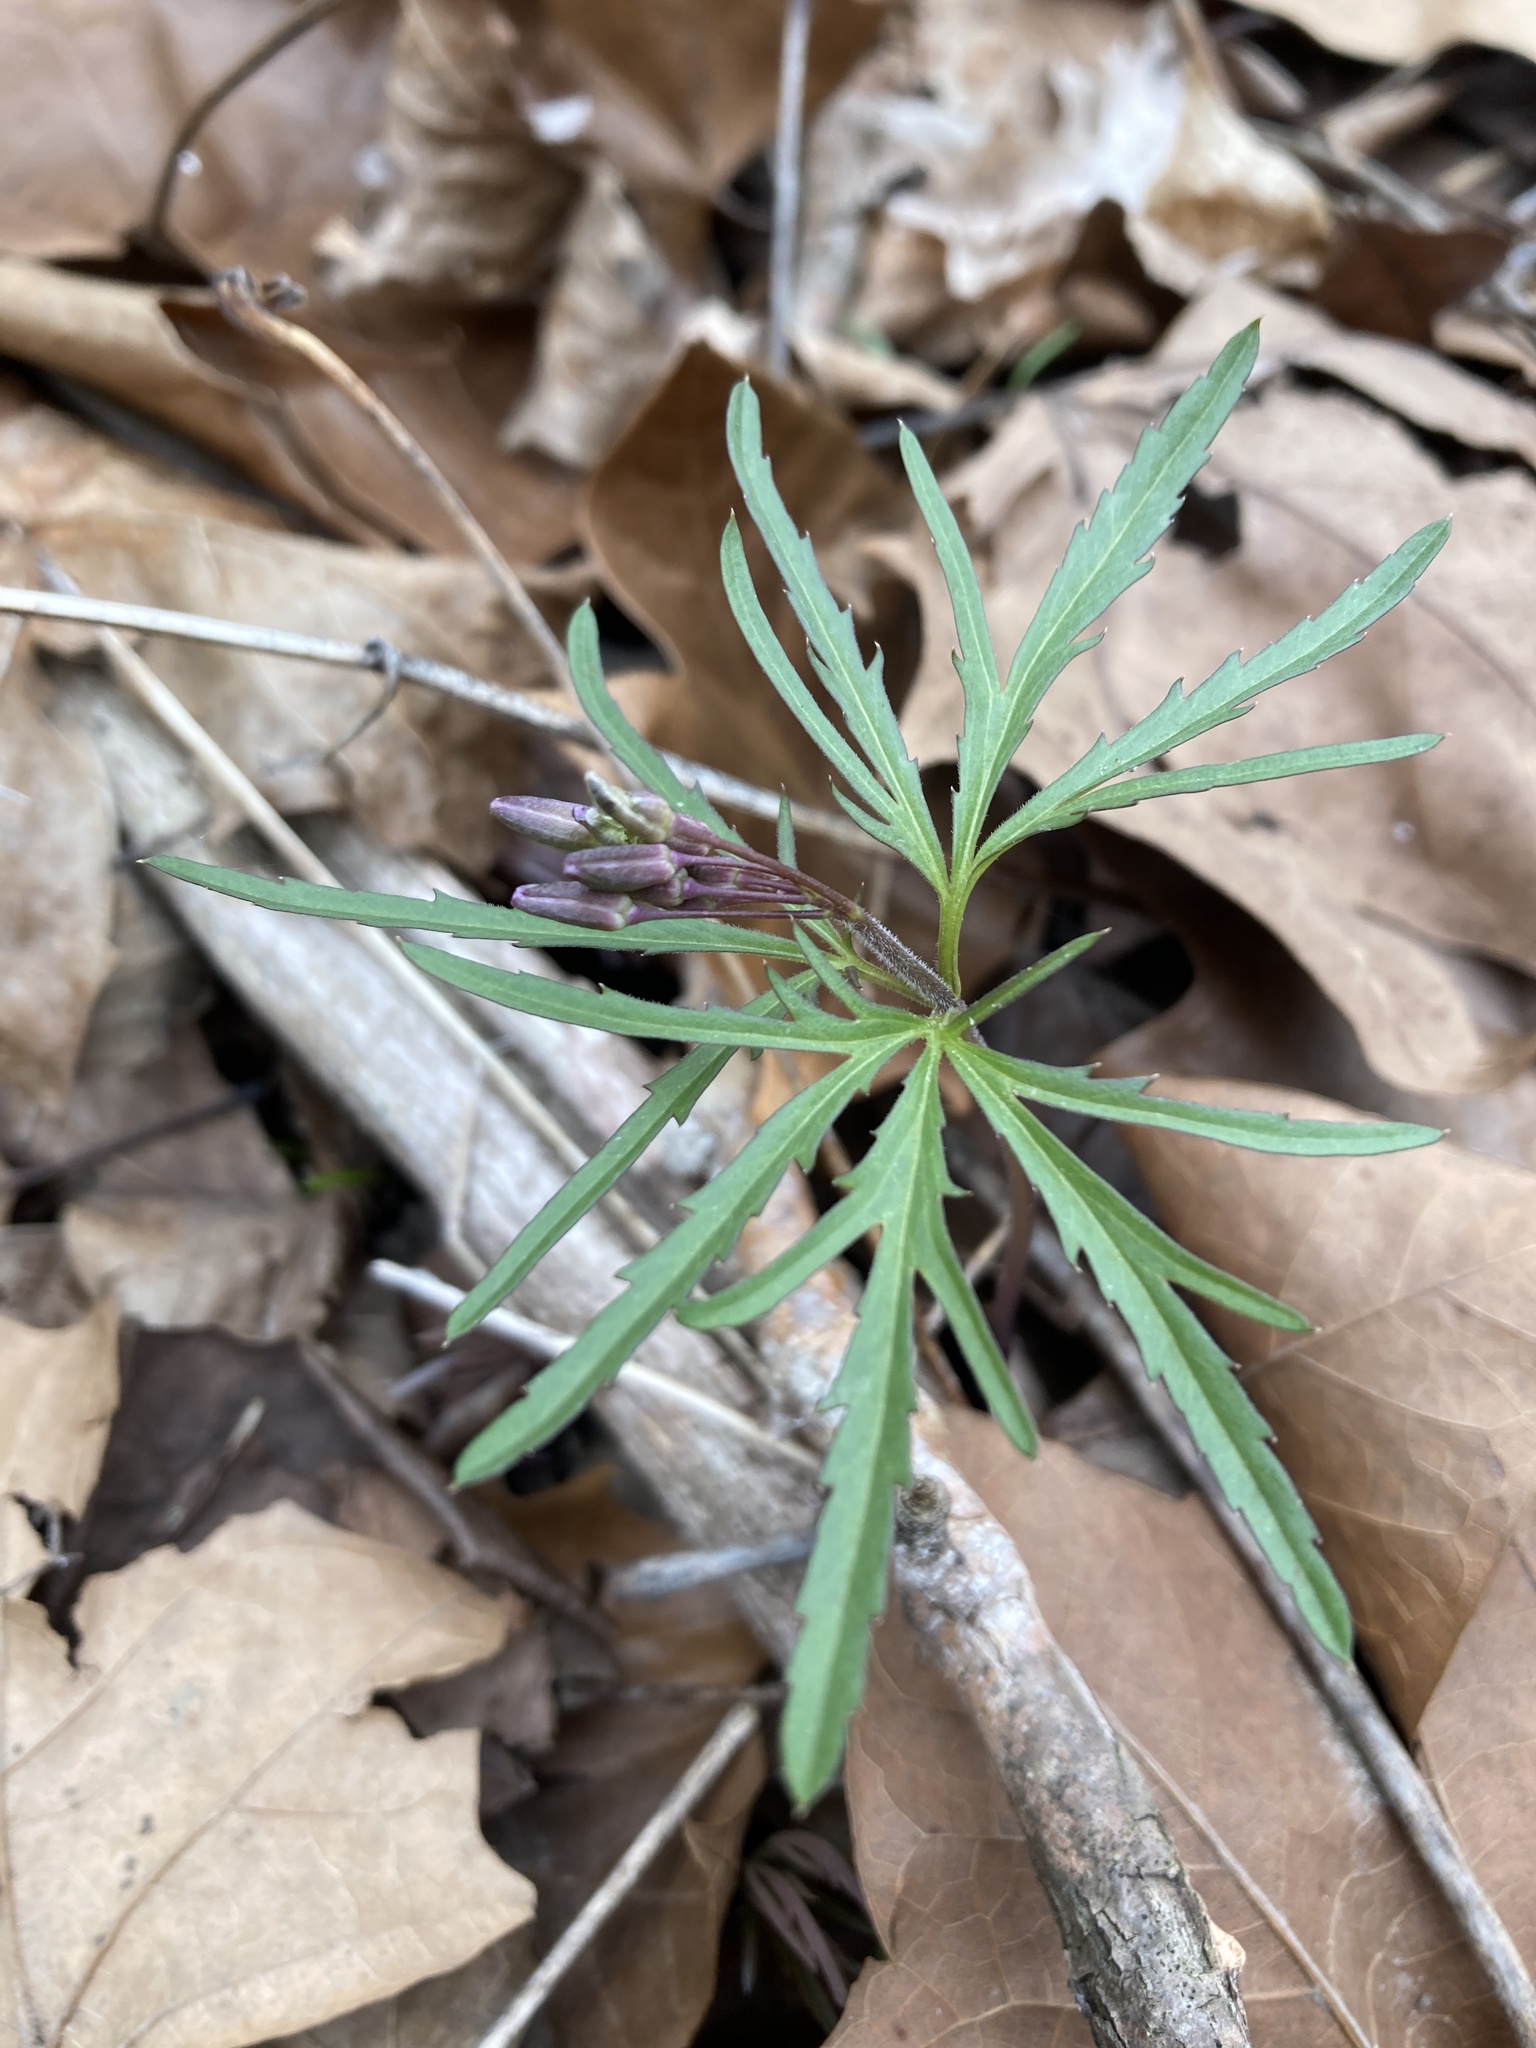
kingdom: Plantae
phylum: Tracheophyta
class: Magnoliopsida
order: Brassicales
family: Brassicaceae
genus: Cardamine
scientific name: Cardamine concatenata
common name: Cut-leaf toothcup
